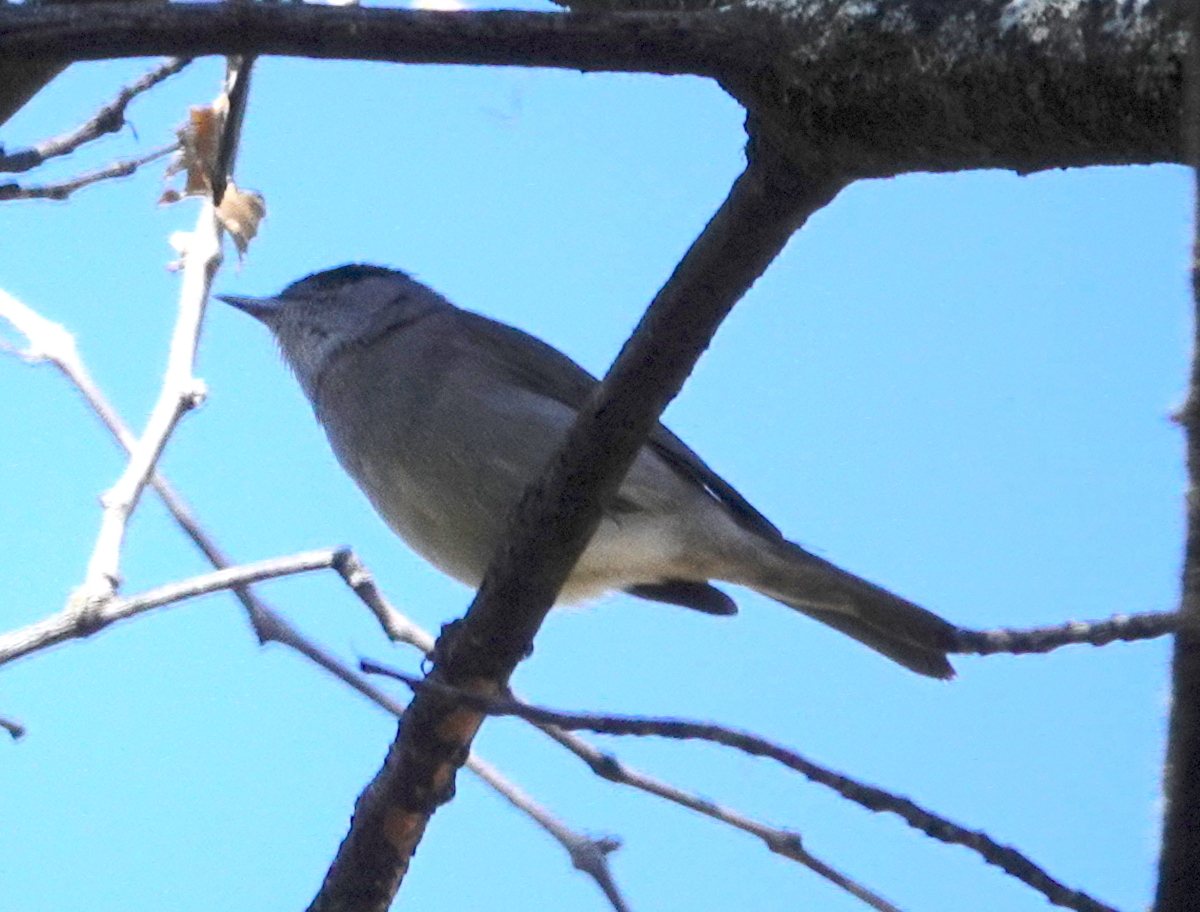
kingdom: Animalia
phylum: Chordata
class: Aves
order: Passeriformes
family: Sylviidae
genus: Sylvia
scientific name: Sylvia atricapilla
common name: Eurasian blackcap
